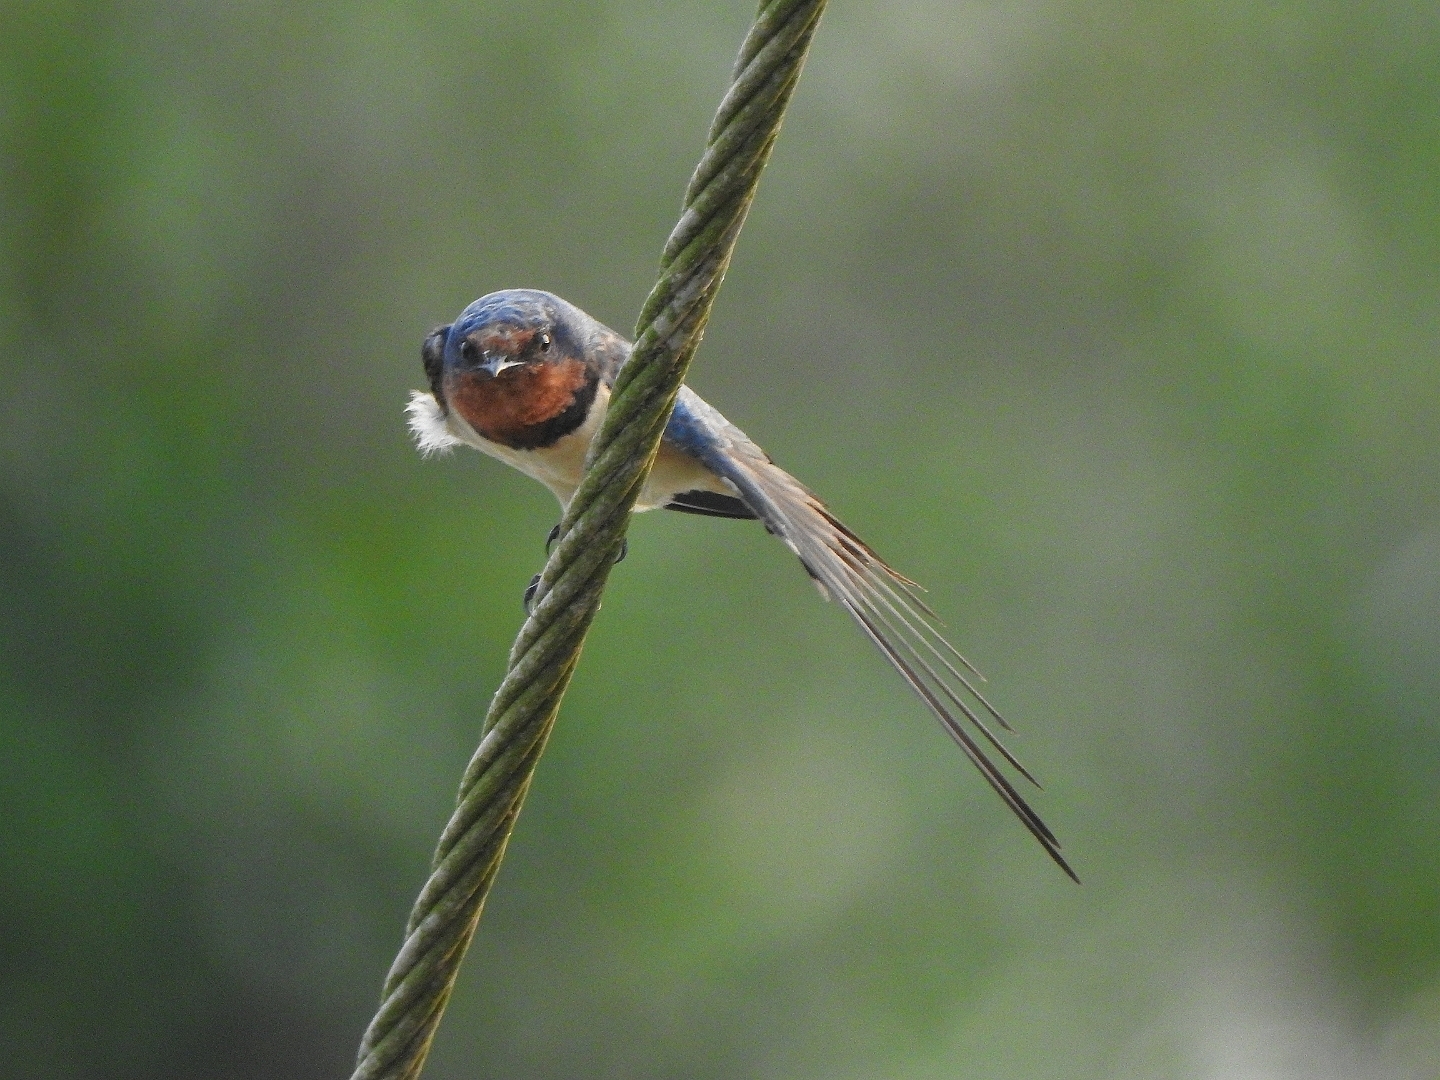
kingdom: Animalia
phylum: Chordata
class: Aves
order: Passeriformes
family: Hirundinidae
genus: Hirundo
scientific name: Hirundo rustica
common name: Barn swallow
